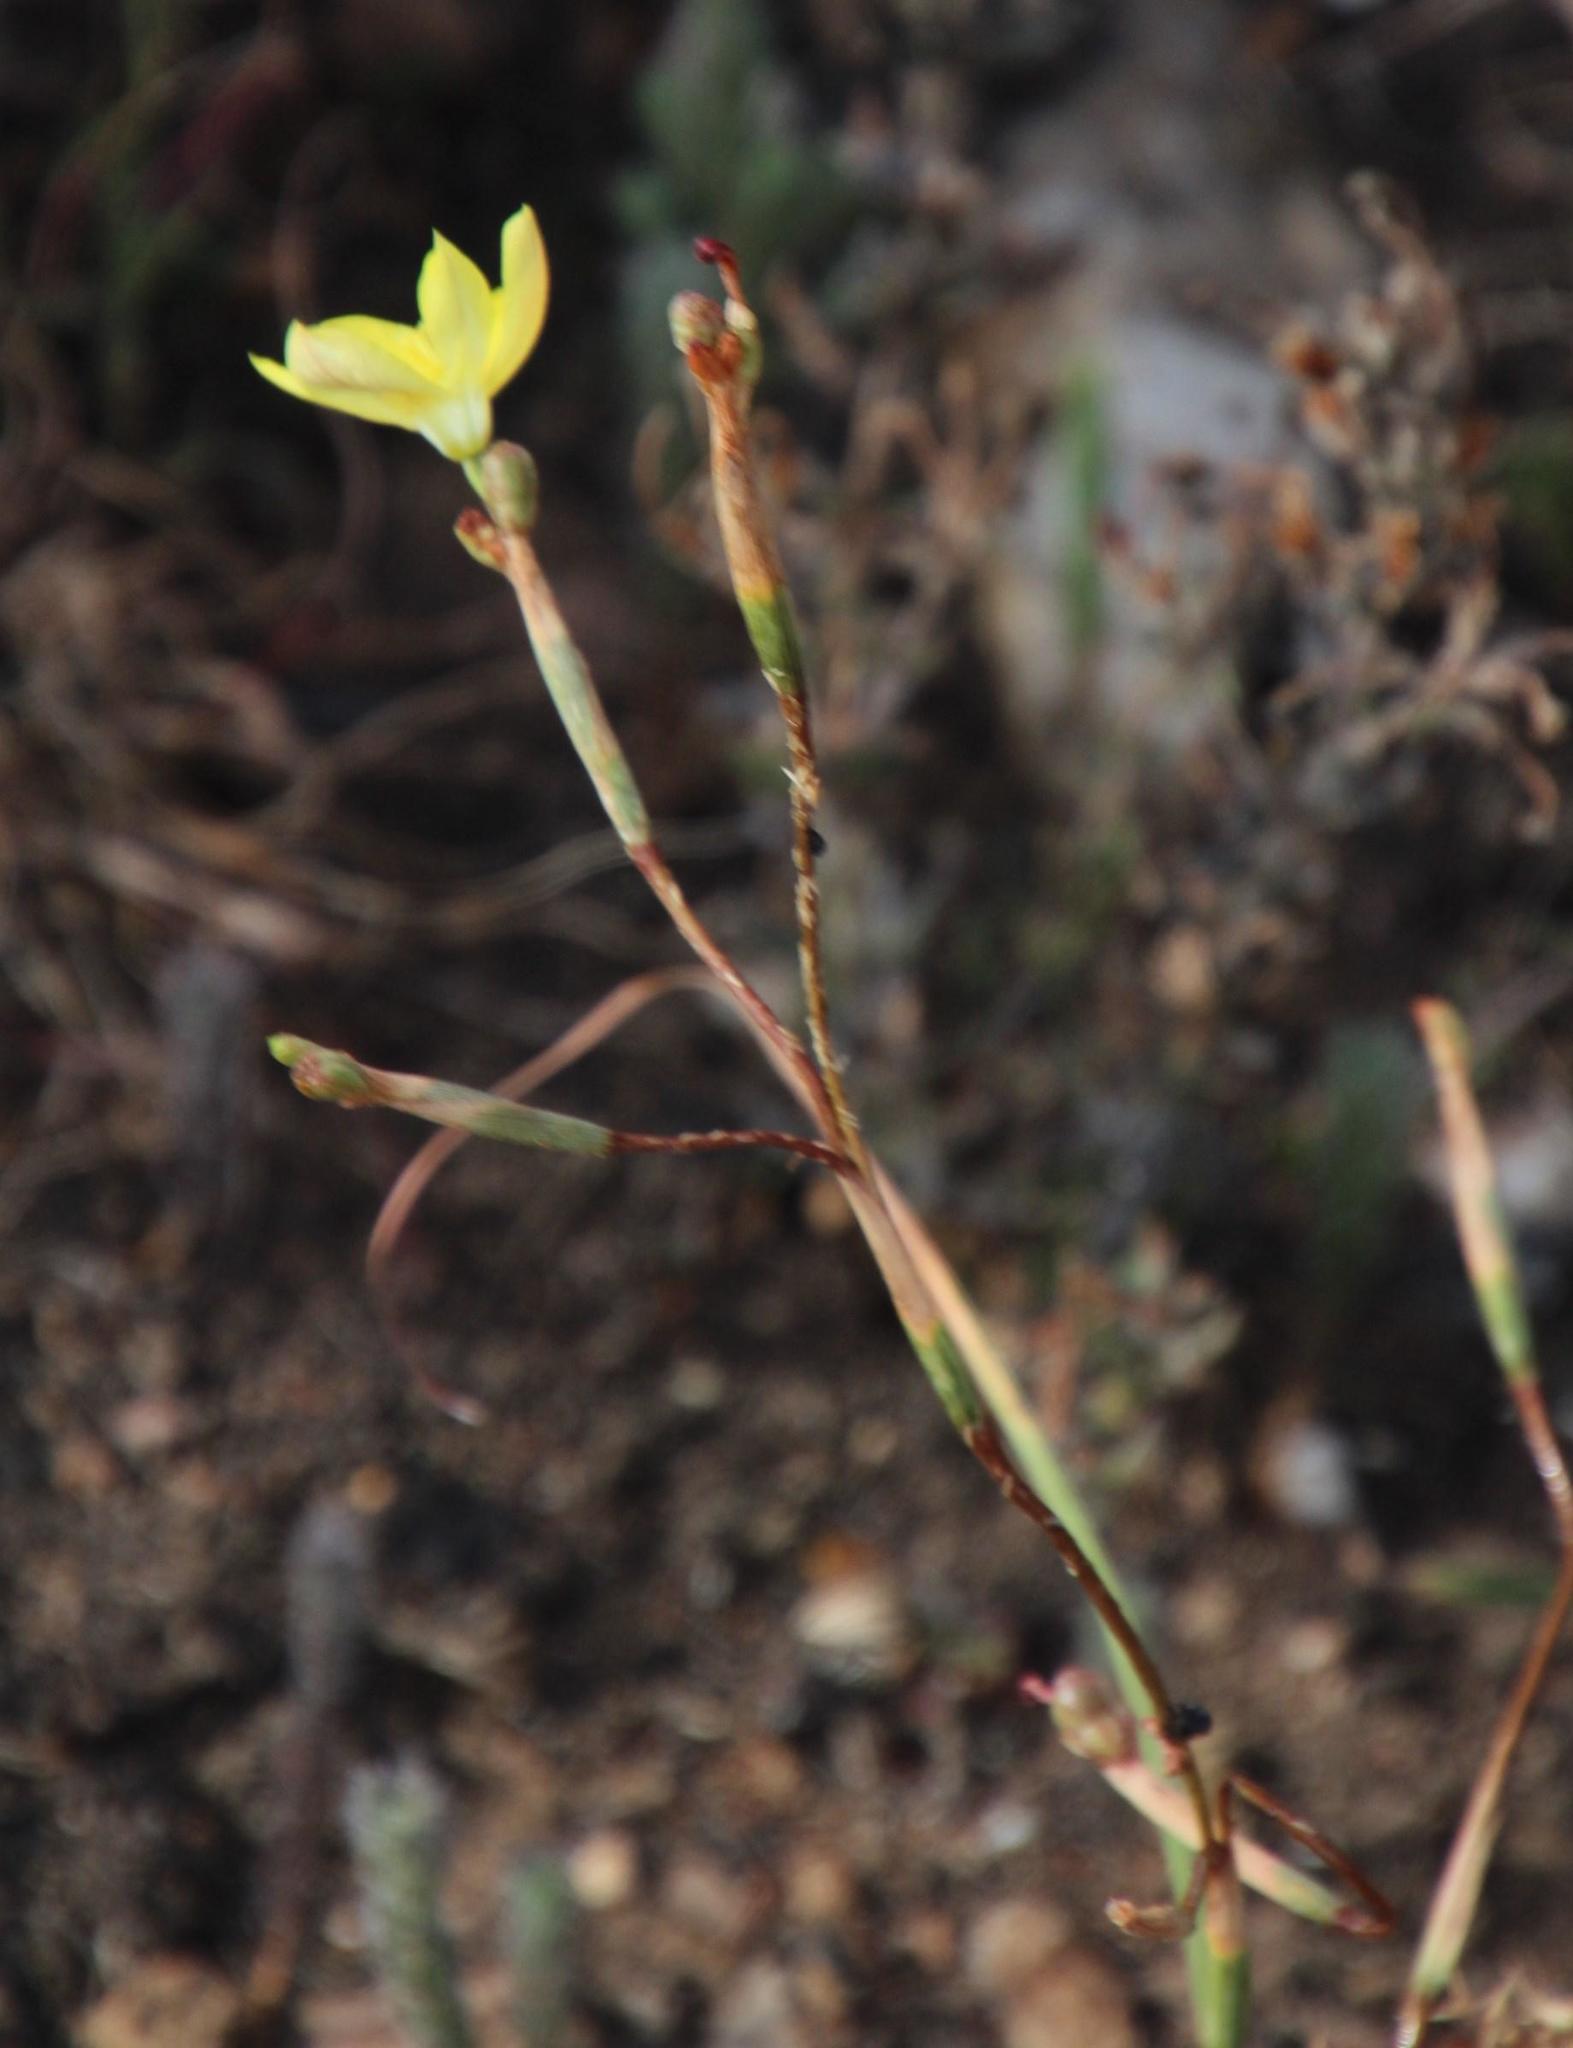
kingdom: Plantae
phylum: Tracheophyta
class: Liliopsida
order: Asparagales
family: Iridaceae
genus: Moraea
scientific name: Moraea elsiae
